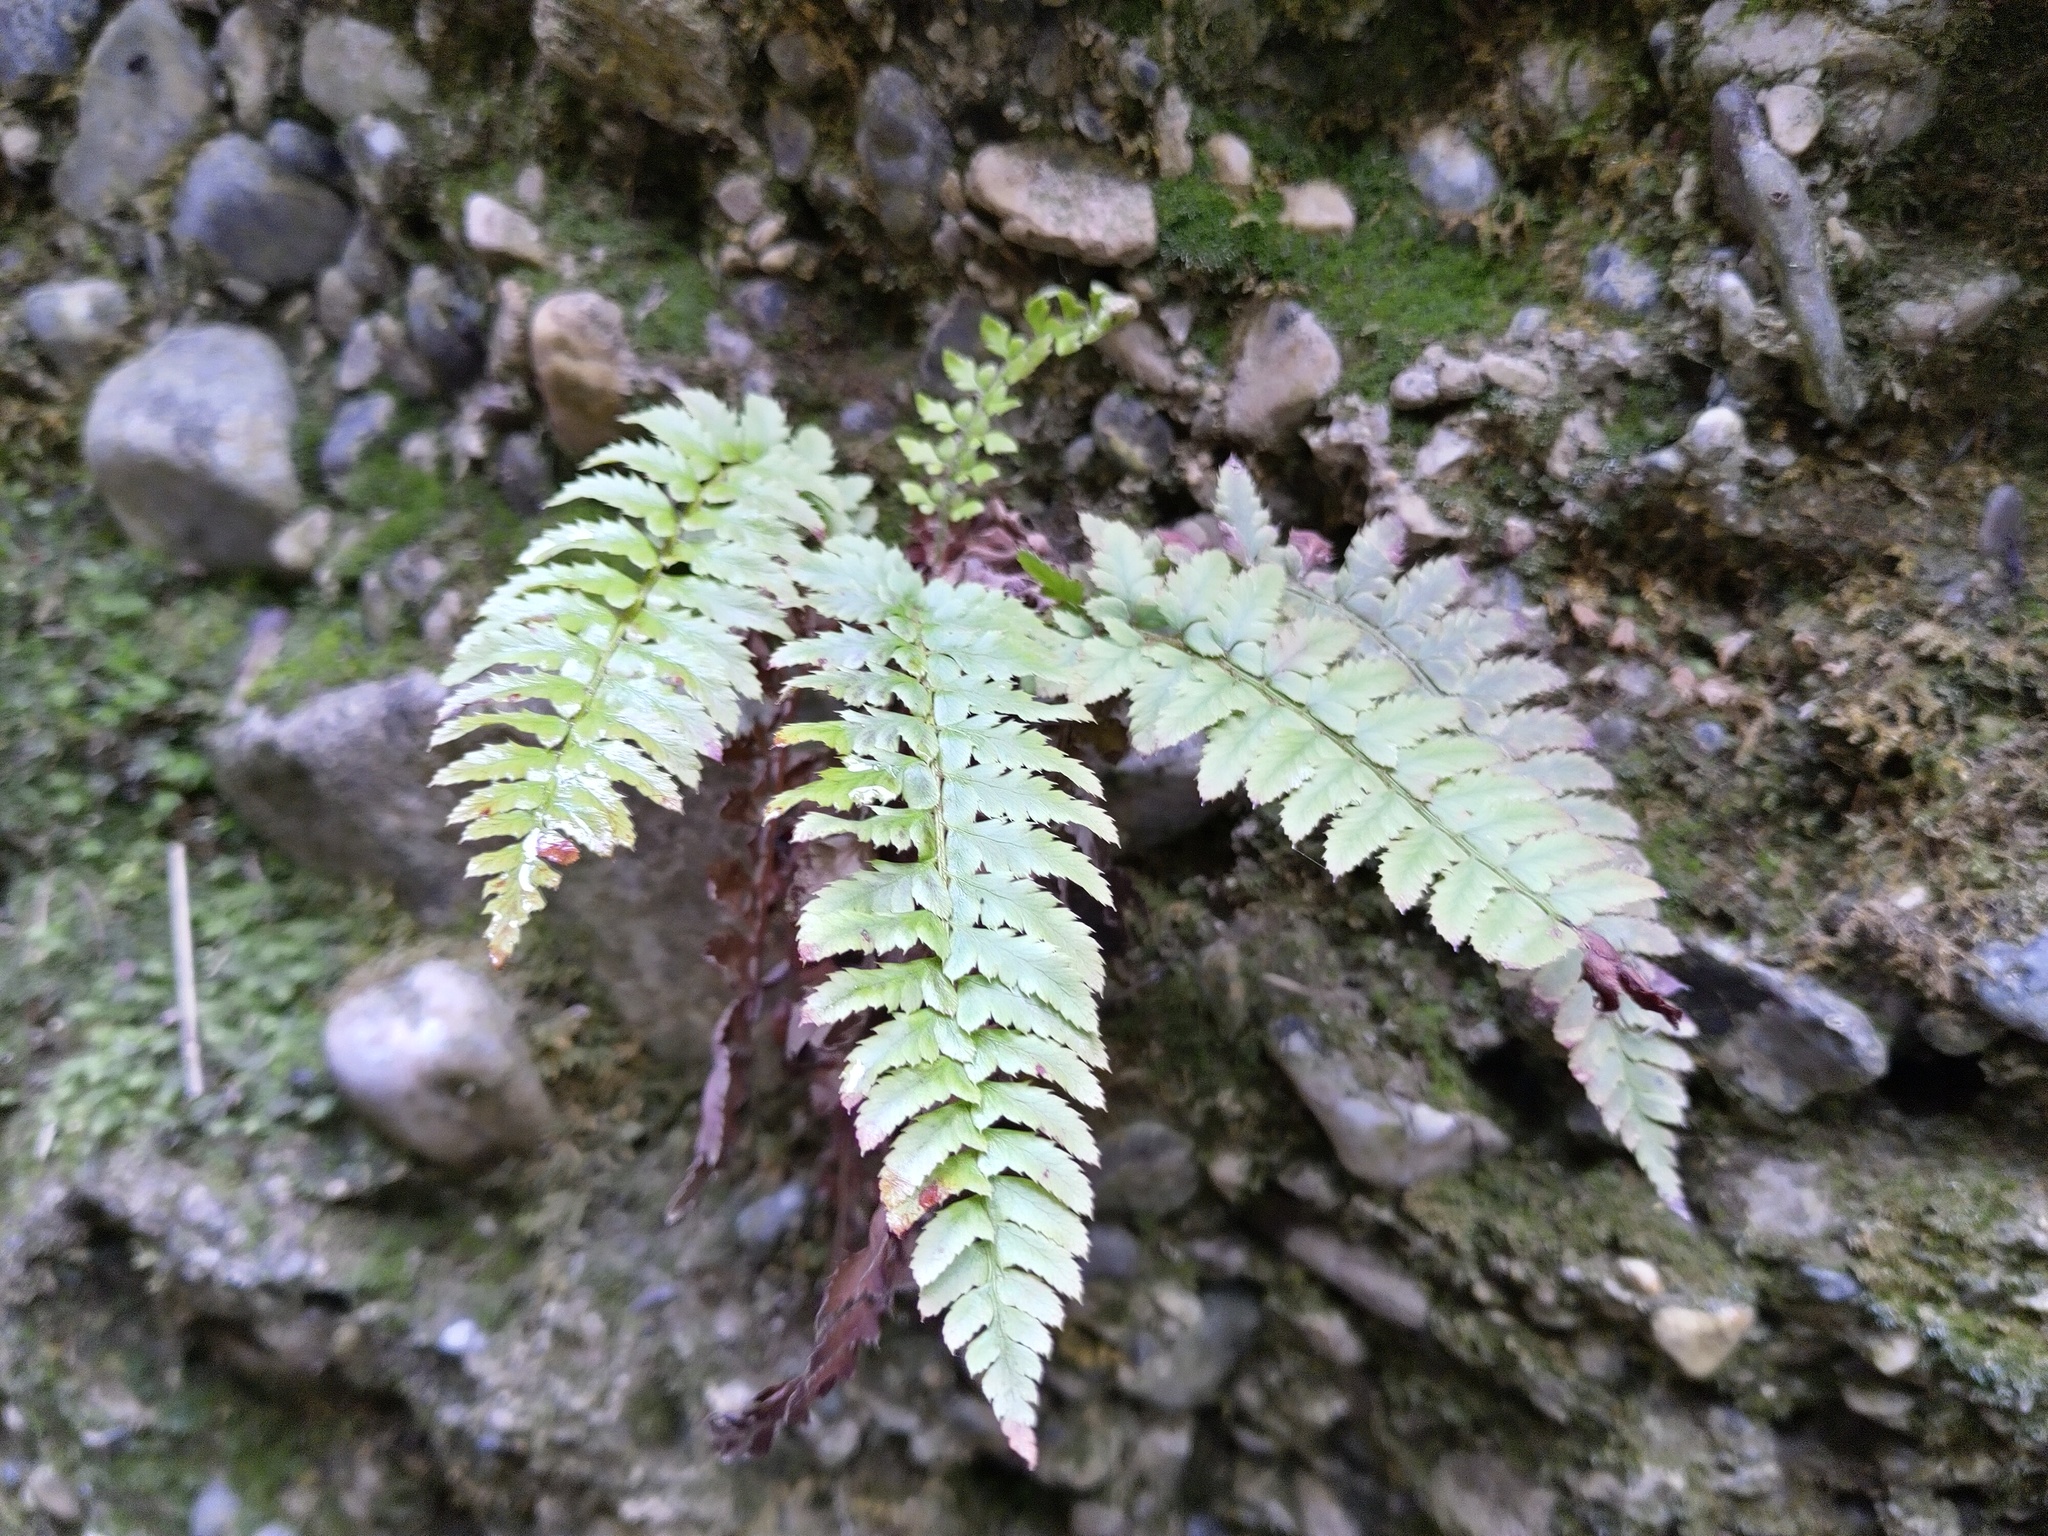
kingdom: Plantae
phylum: Tracheophyta
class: Polypodiopsida
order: Polypodiales
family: Dryopteridaceae
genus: Polystichum
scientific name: Polystichum aculeatum
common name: Hard shield-fern
